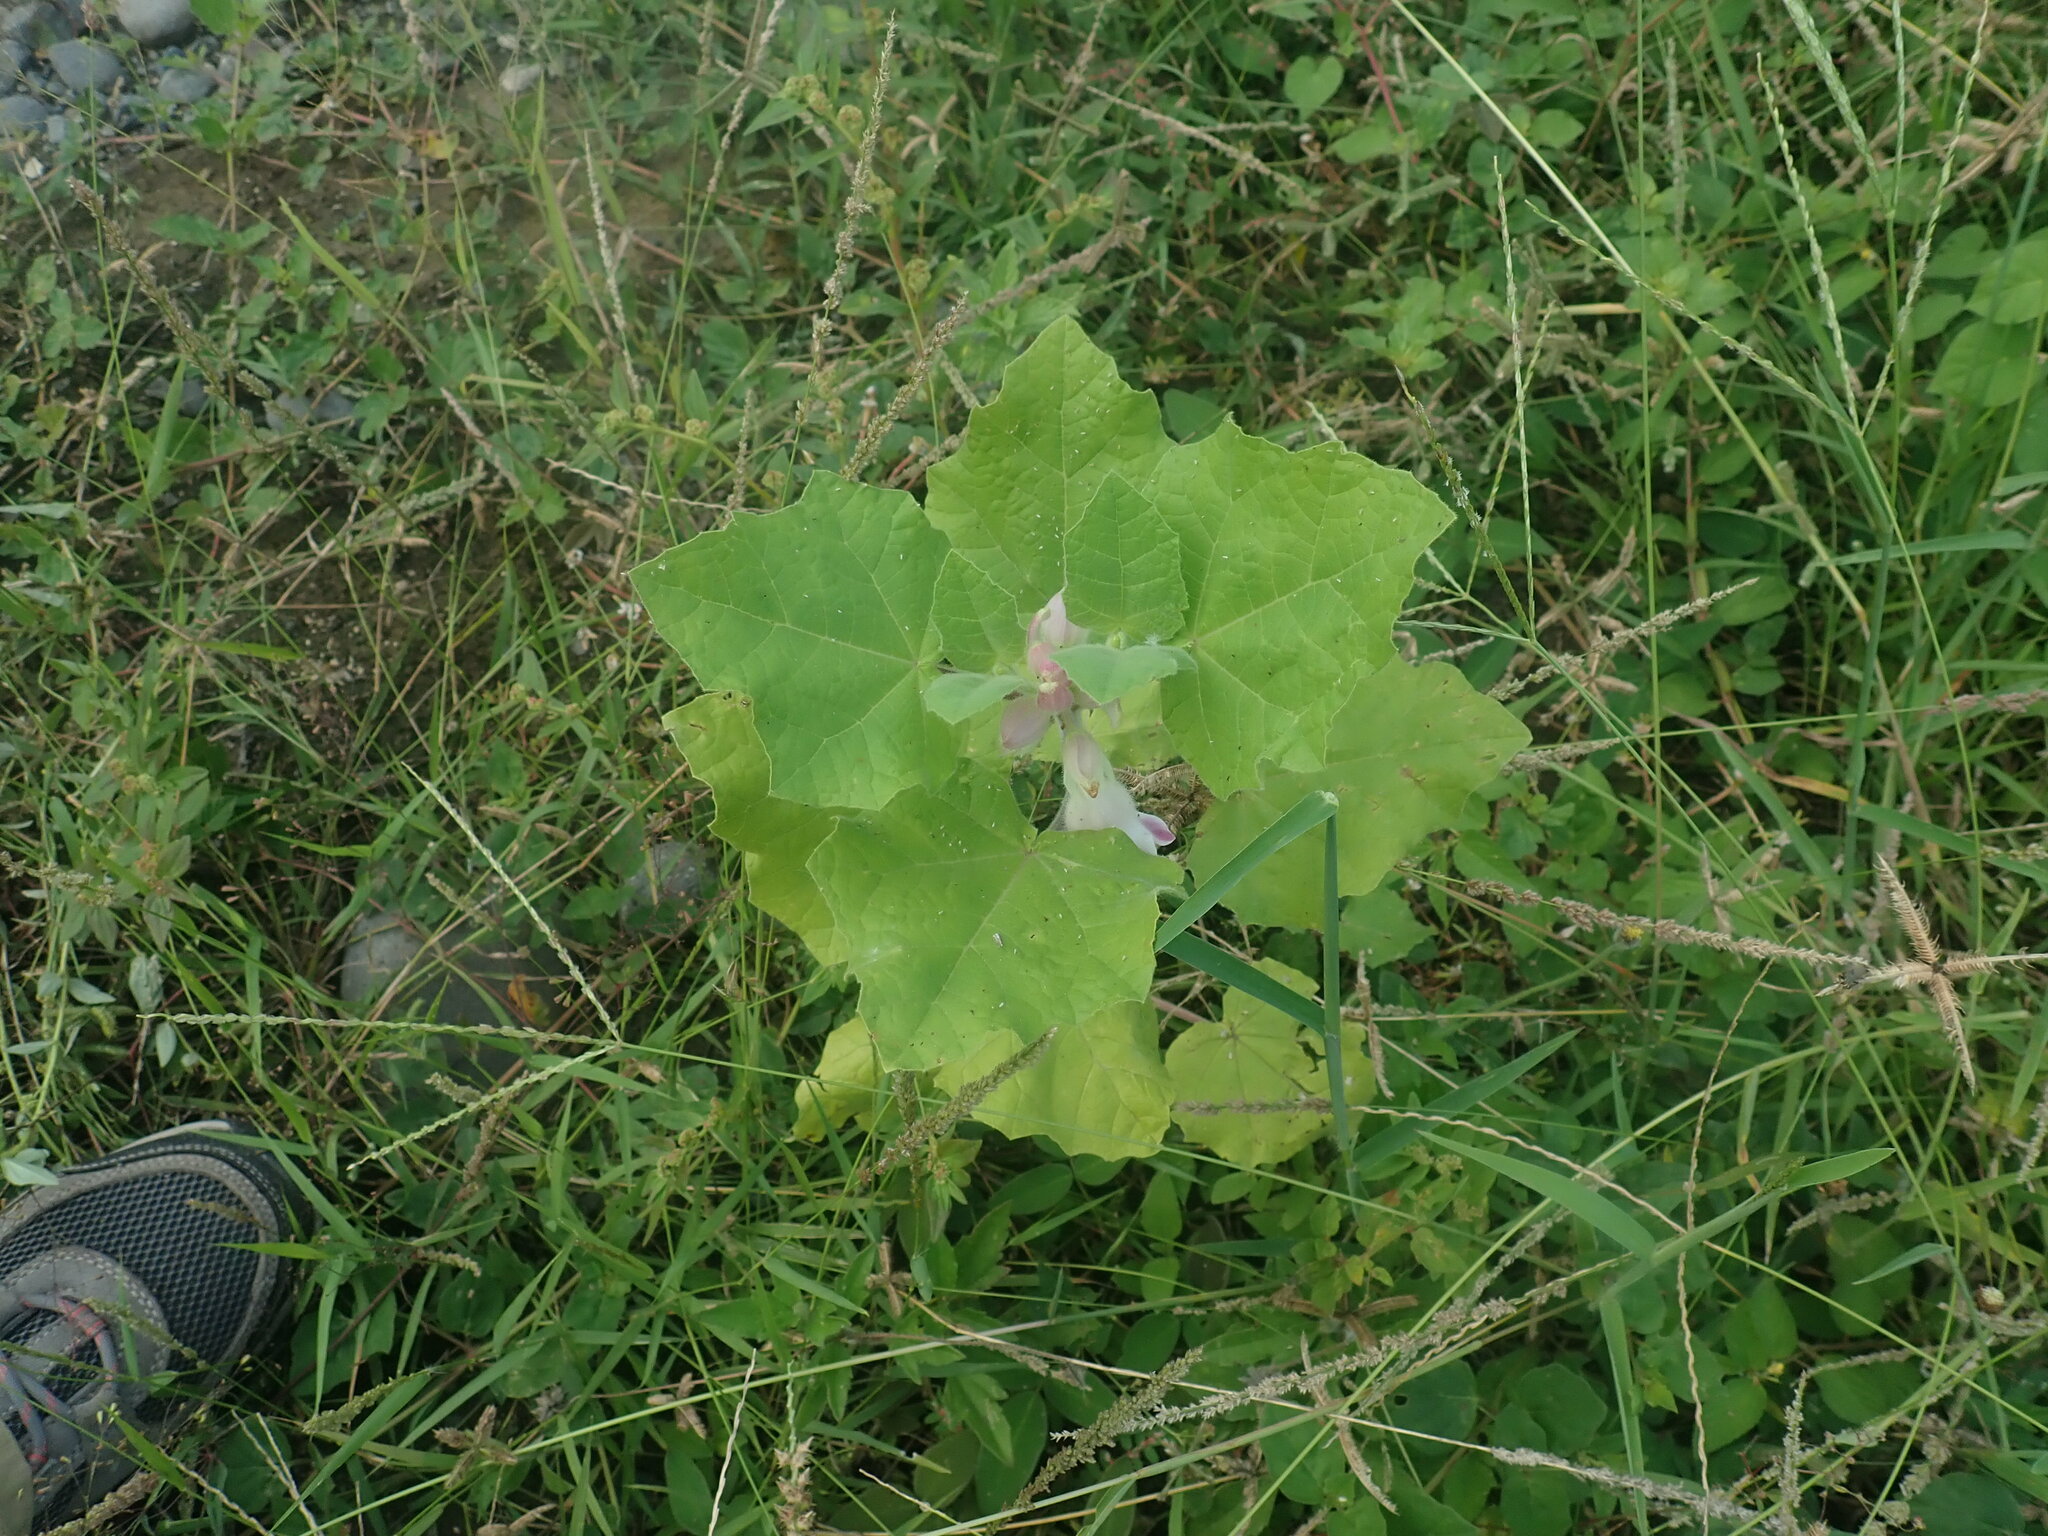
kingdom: Plantae
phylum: Tracheophyta
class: Magnoliopsida
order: Lamiales
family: Martyniaceae
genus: Martynia
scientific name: Martynia annua
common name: Tiger's-claw
